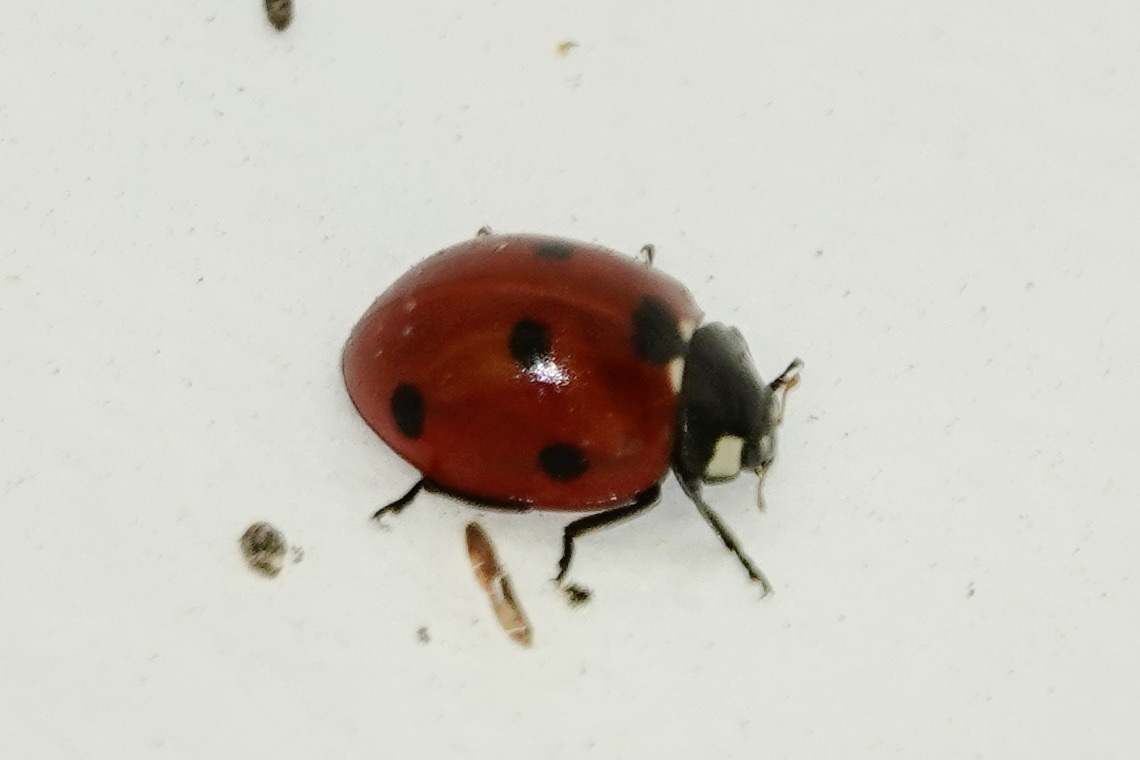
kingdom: Animalia
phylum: Arthropoda
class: Insecta
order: Coleoptera
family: Coccinellidae
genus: Coccinella
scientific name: Coccinella septempunctata
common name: Sevenspotted lady beetle
